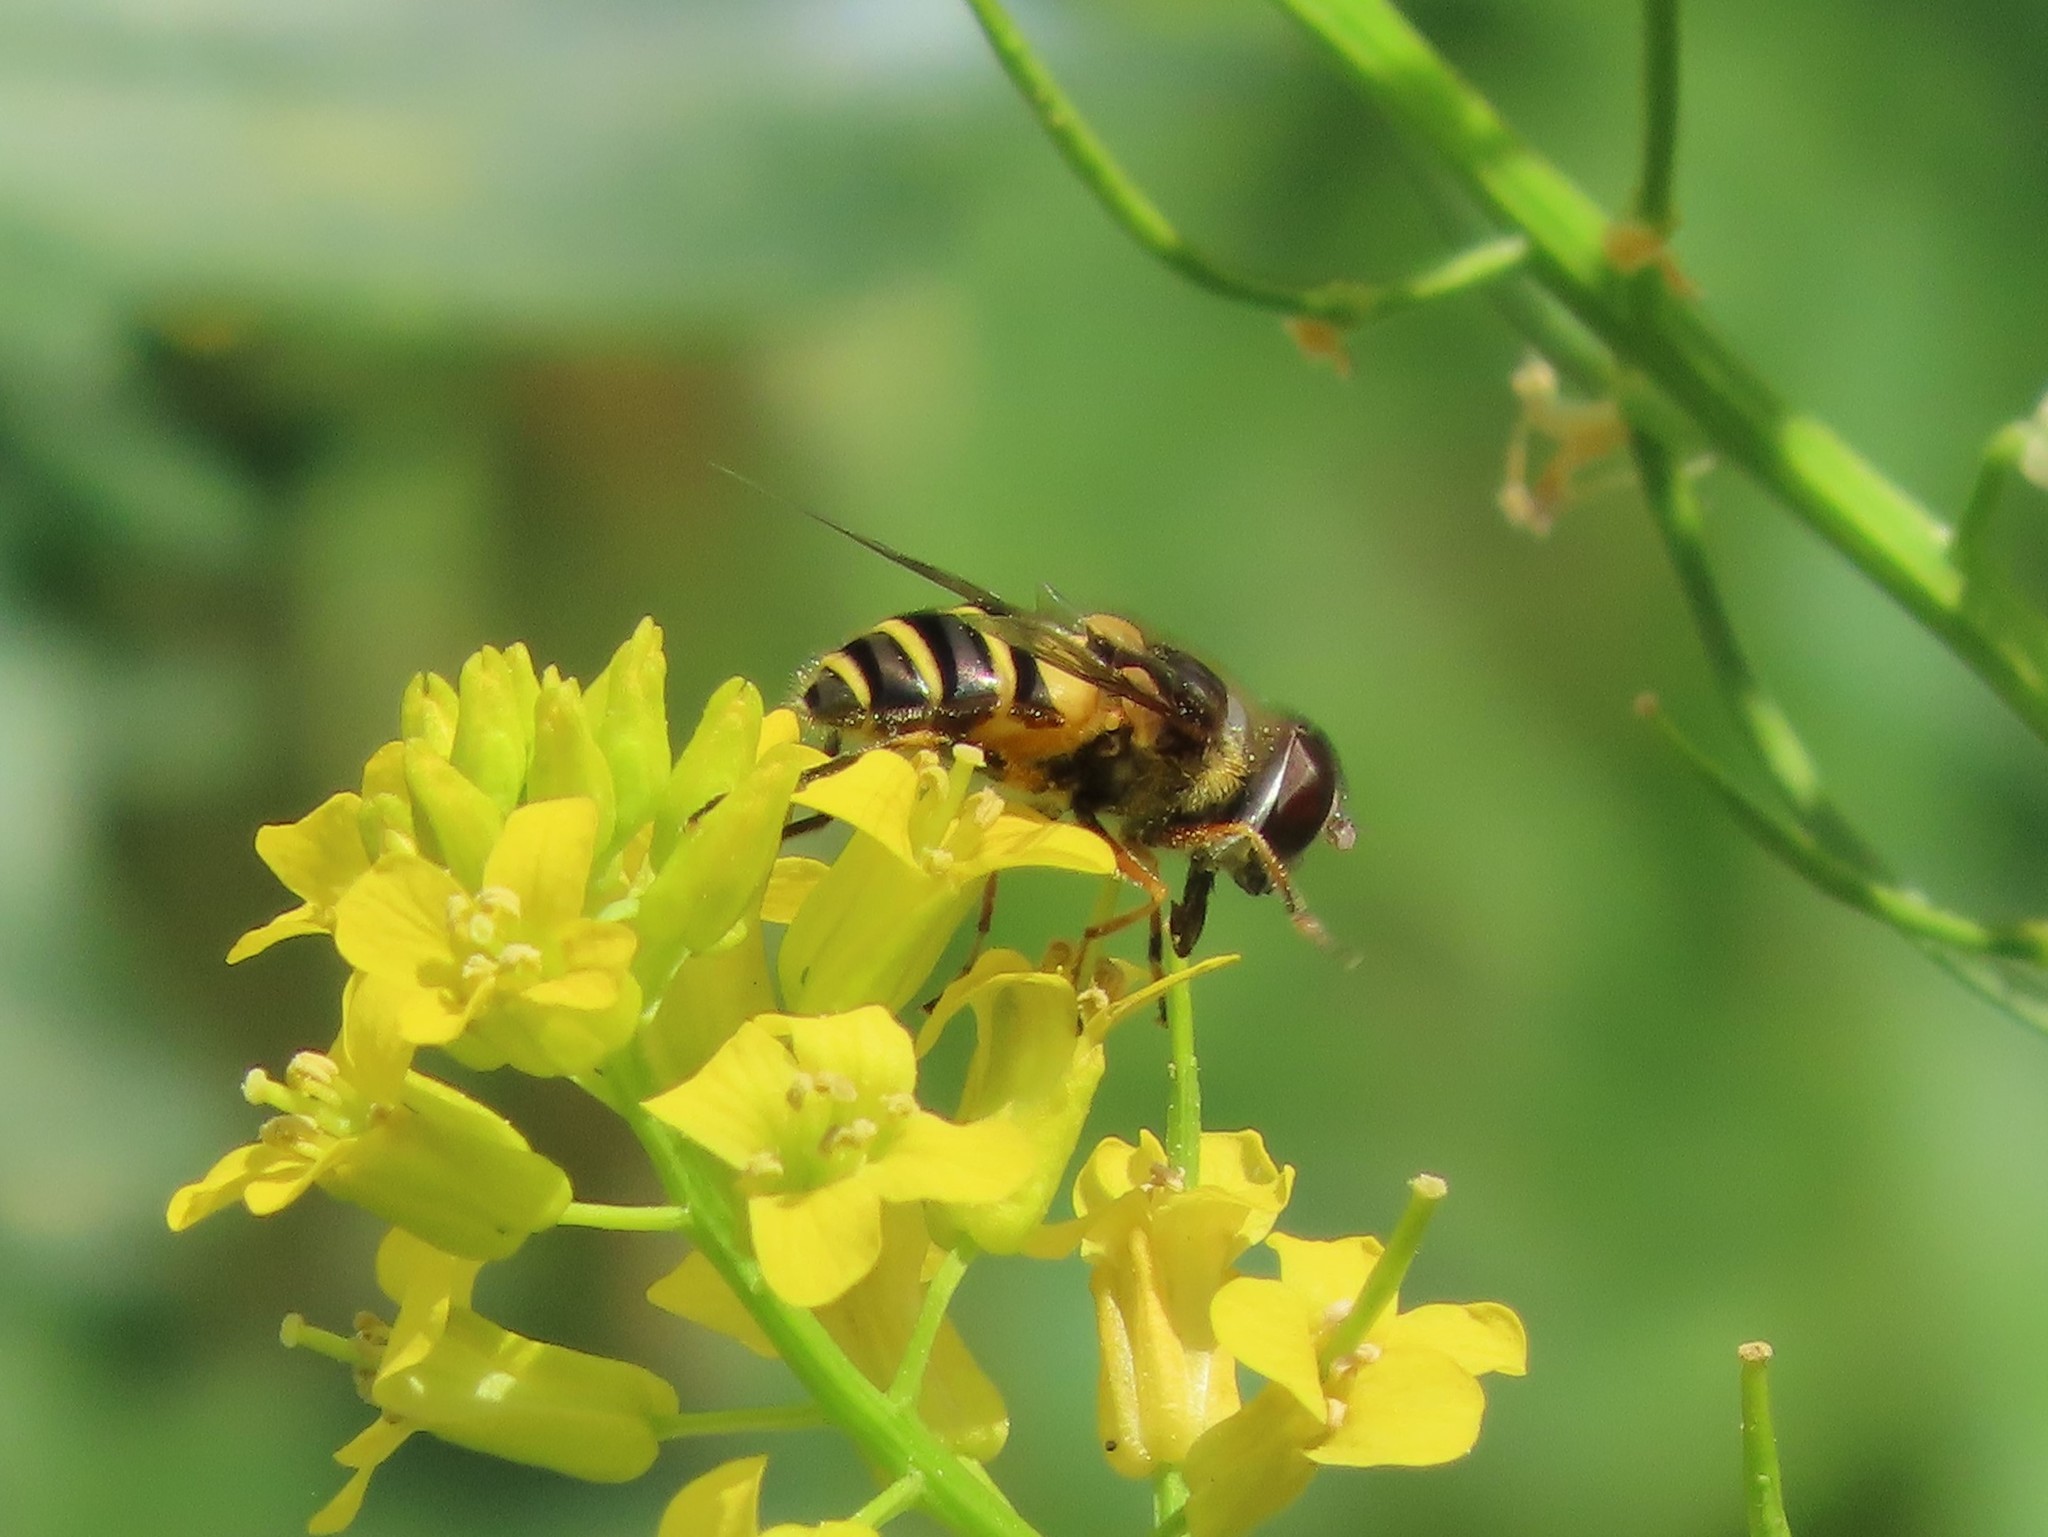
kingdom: Animalia
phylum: Arthropoda
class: Insecta
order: Diptera
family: Syrphidae
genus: Eristalis
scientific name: Eristalis transversa
